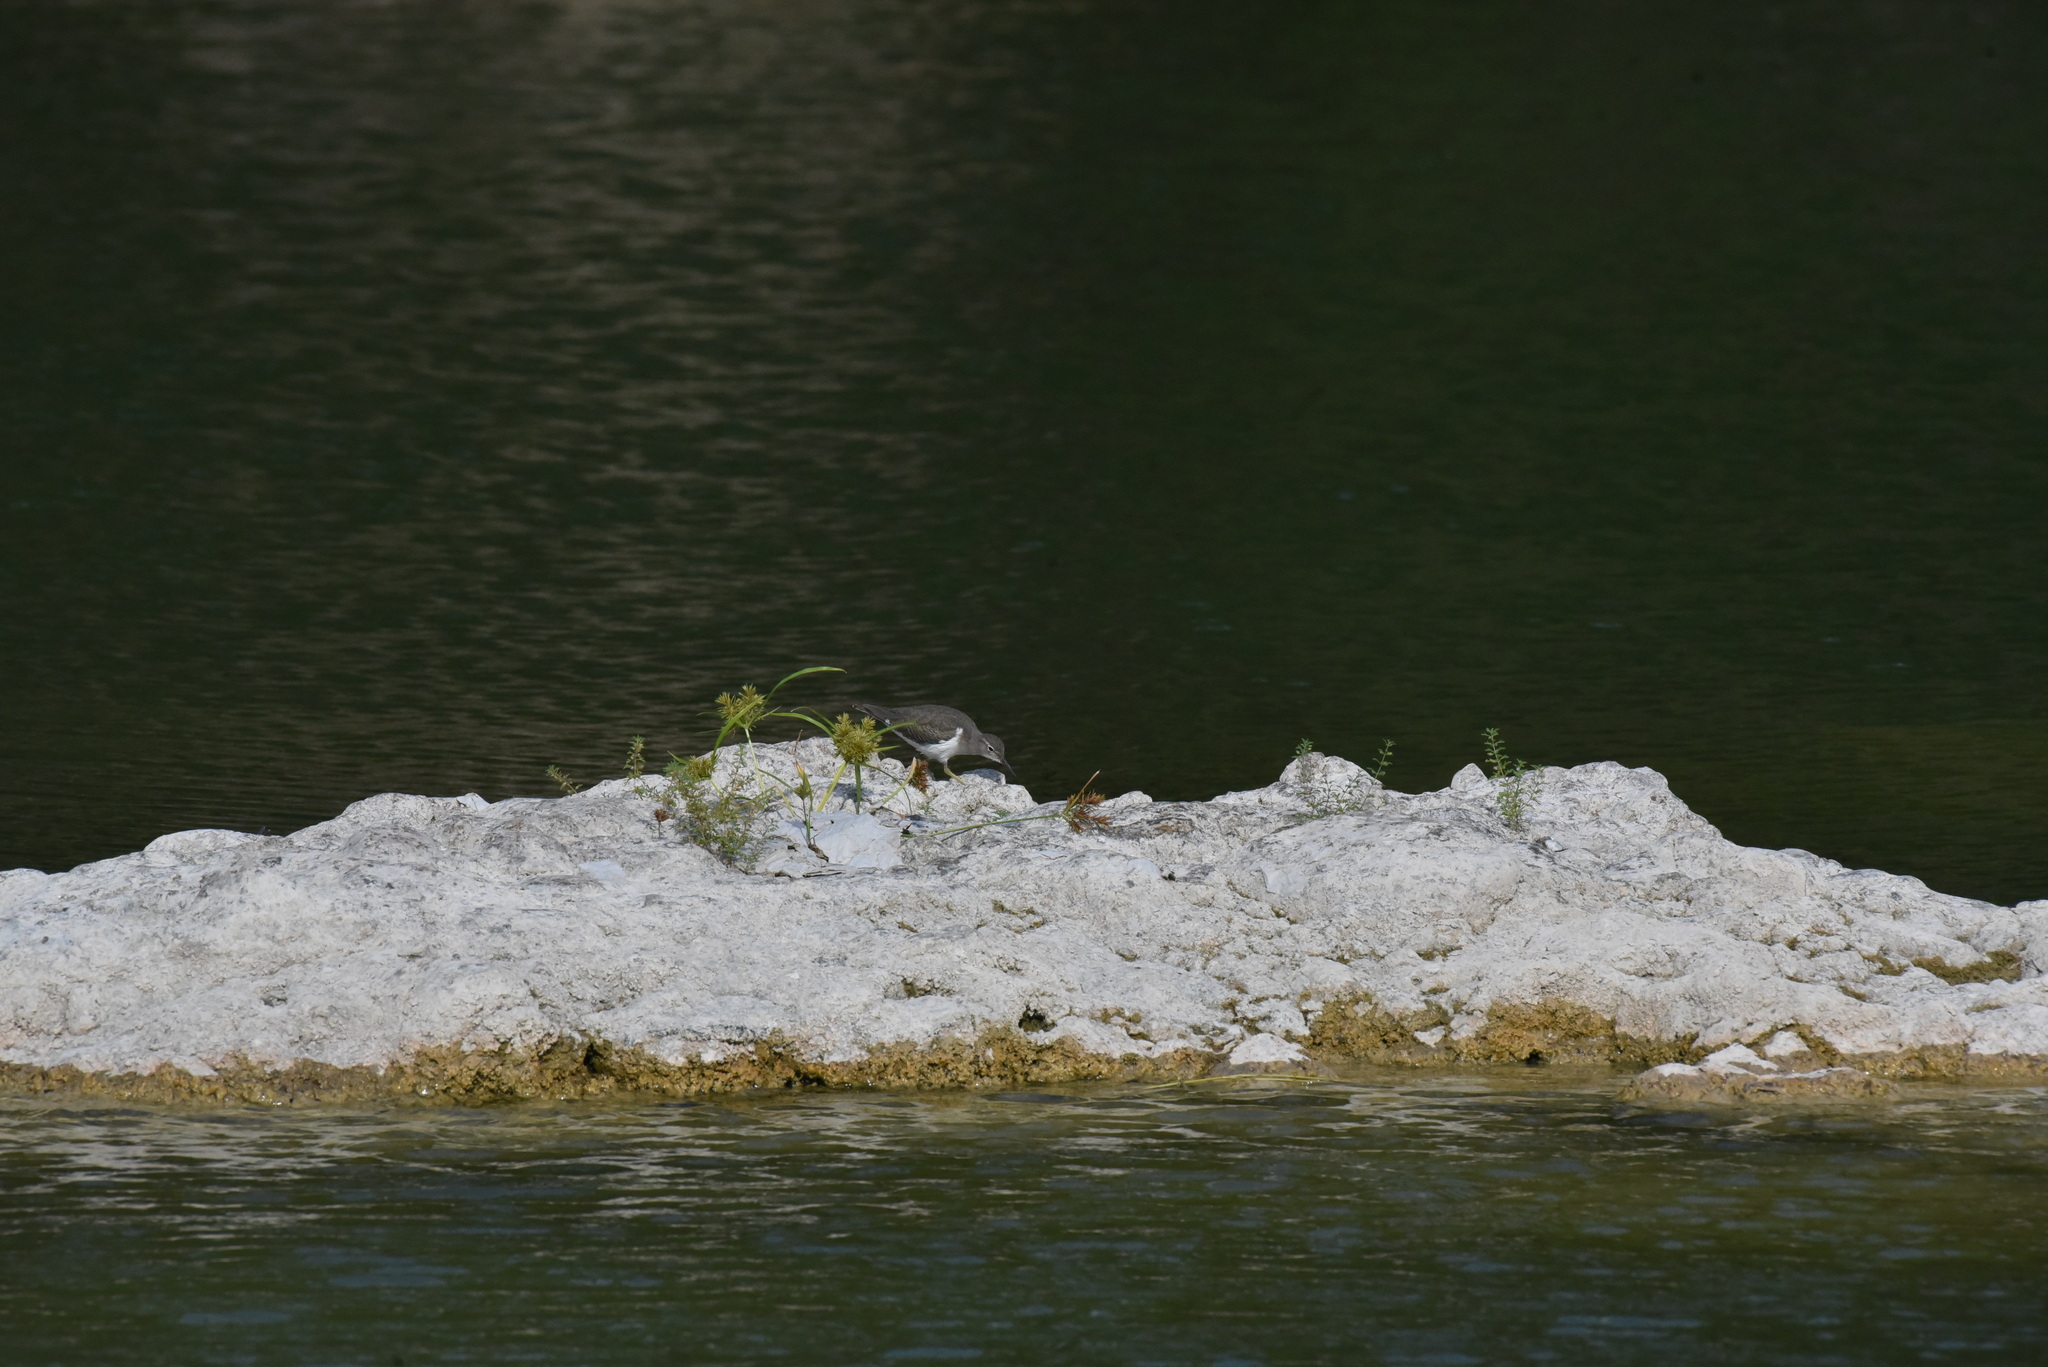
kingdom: Animalia
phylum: Chordata
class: Aves
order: Charadriiformes
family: Scolopacidae
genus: Actitis
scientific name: Actitis macularius
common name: Spotted sandpiper
